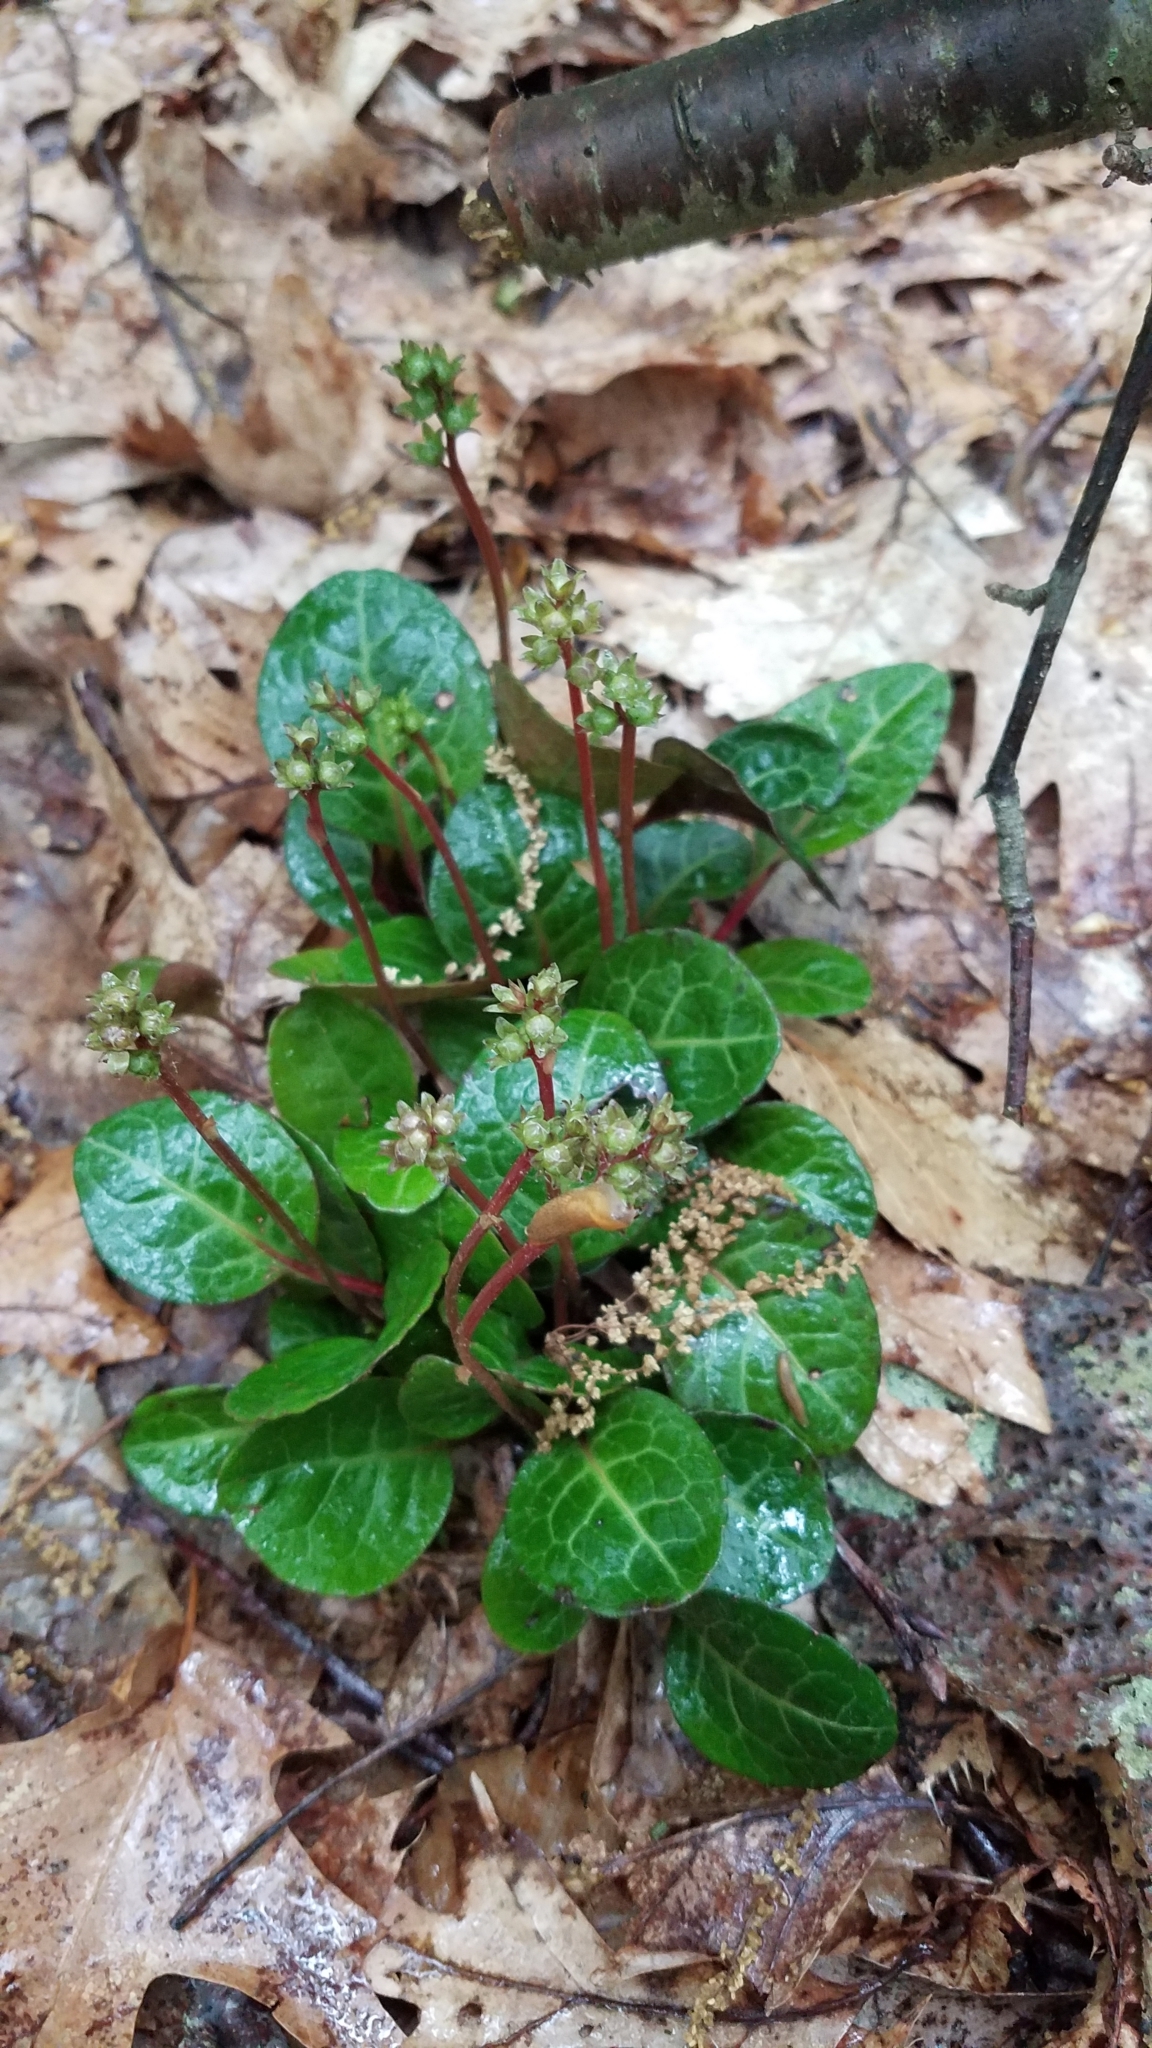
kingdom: Plantae
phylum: Tracheophyta
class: Magnoliopsida
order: Ericales
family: Ericaceae
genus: Pyrola
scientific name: Pyrola americana
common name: American wintergreen
